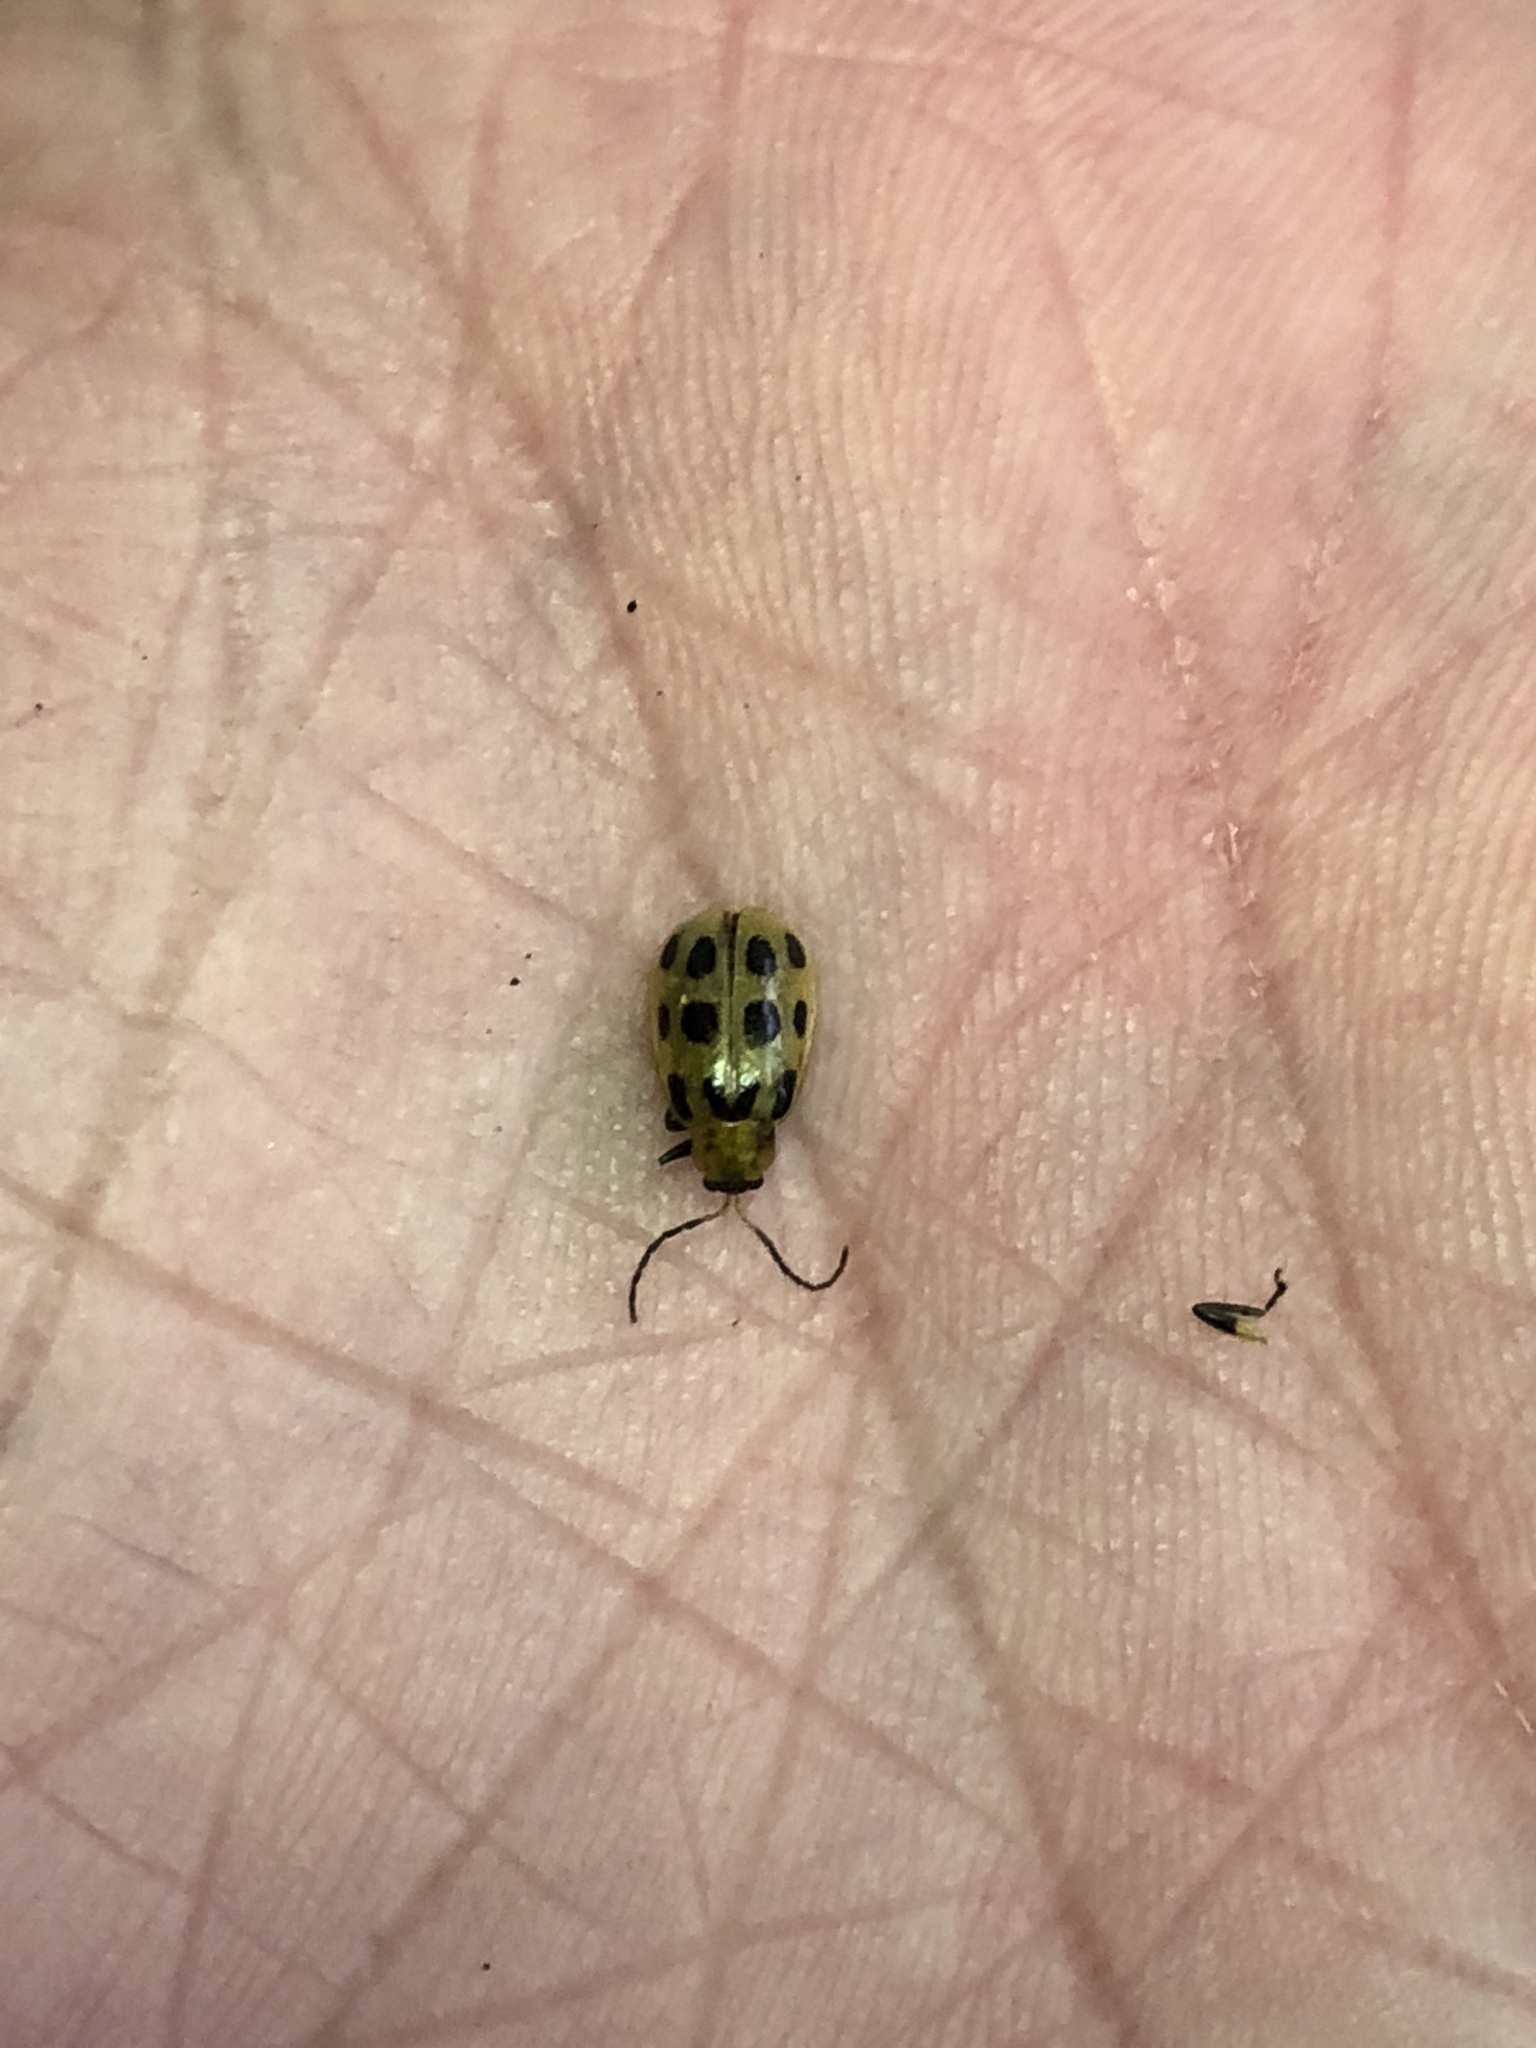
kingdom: Animalia
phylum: Arthropoda
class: Insecta
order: Coleoptera
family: Chrysomelidae
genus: Diabrotica
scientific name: Diabrotica undecimpunctata
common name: Spotted cucumber beetle
